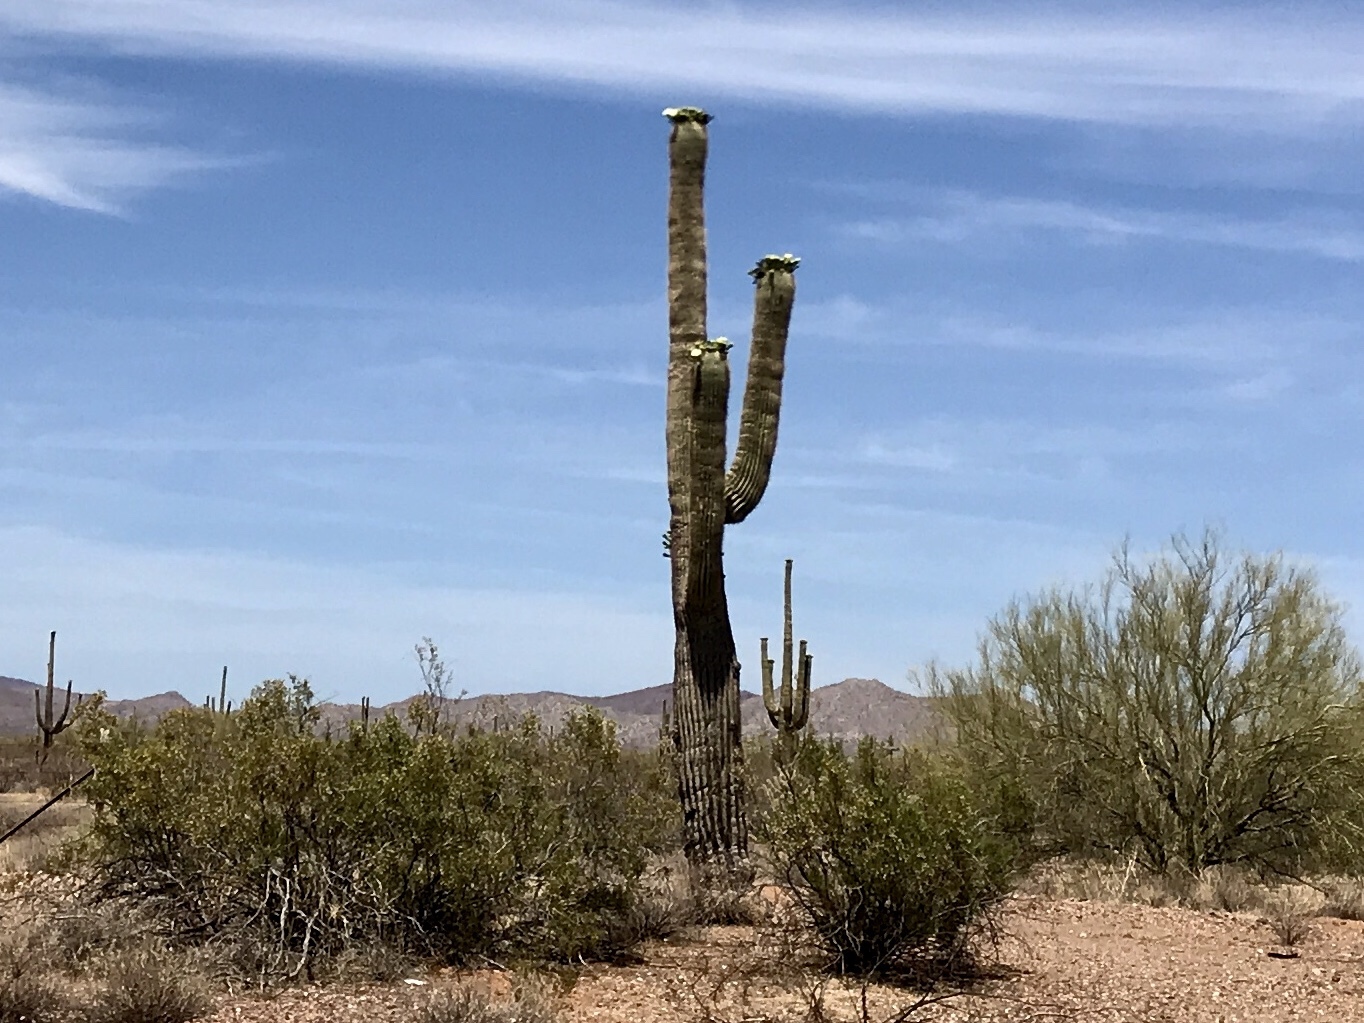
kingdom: Plantae
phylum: Tracheophyta
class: Magnoliopsida
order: Caryophyllales
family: Cactaceae
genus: Carnegiea
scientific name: Carnegiea gigantea
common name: Saguaro
